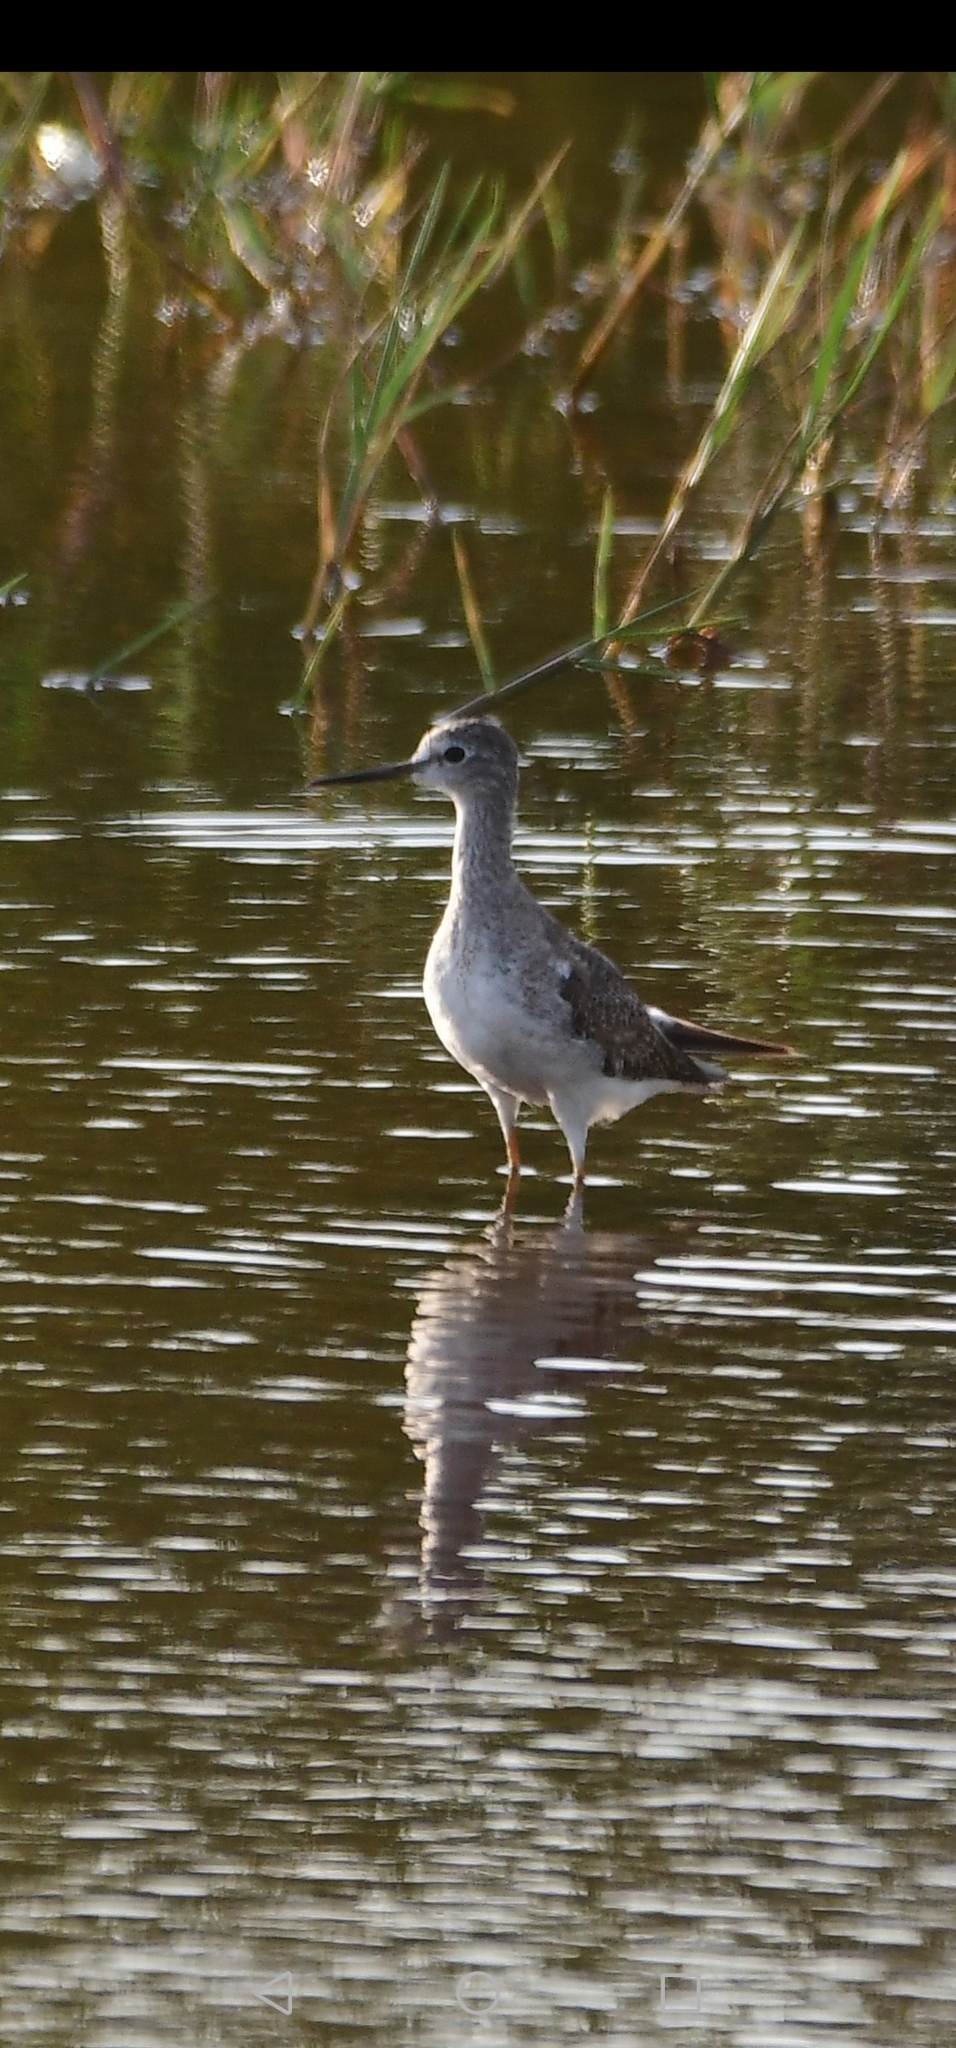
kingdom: Animalia
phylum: Chordata
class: Aves
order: Charadriiformes
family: Scolopacidae
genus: Tringa
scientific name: Tringa flavipes
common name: Lesser yellowlegs
